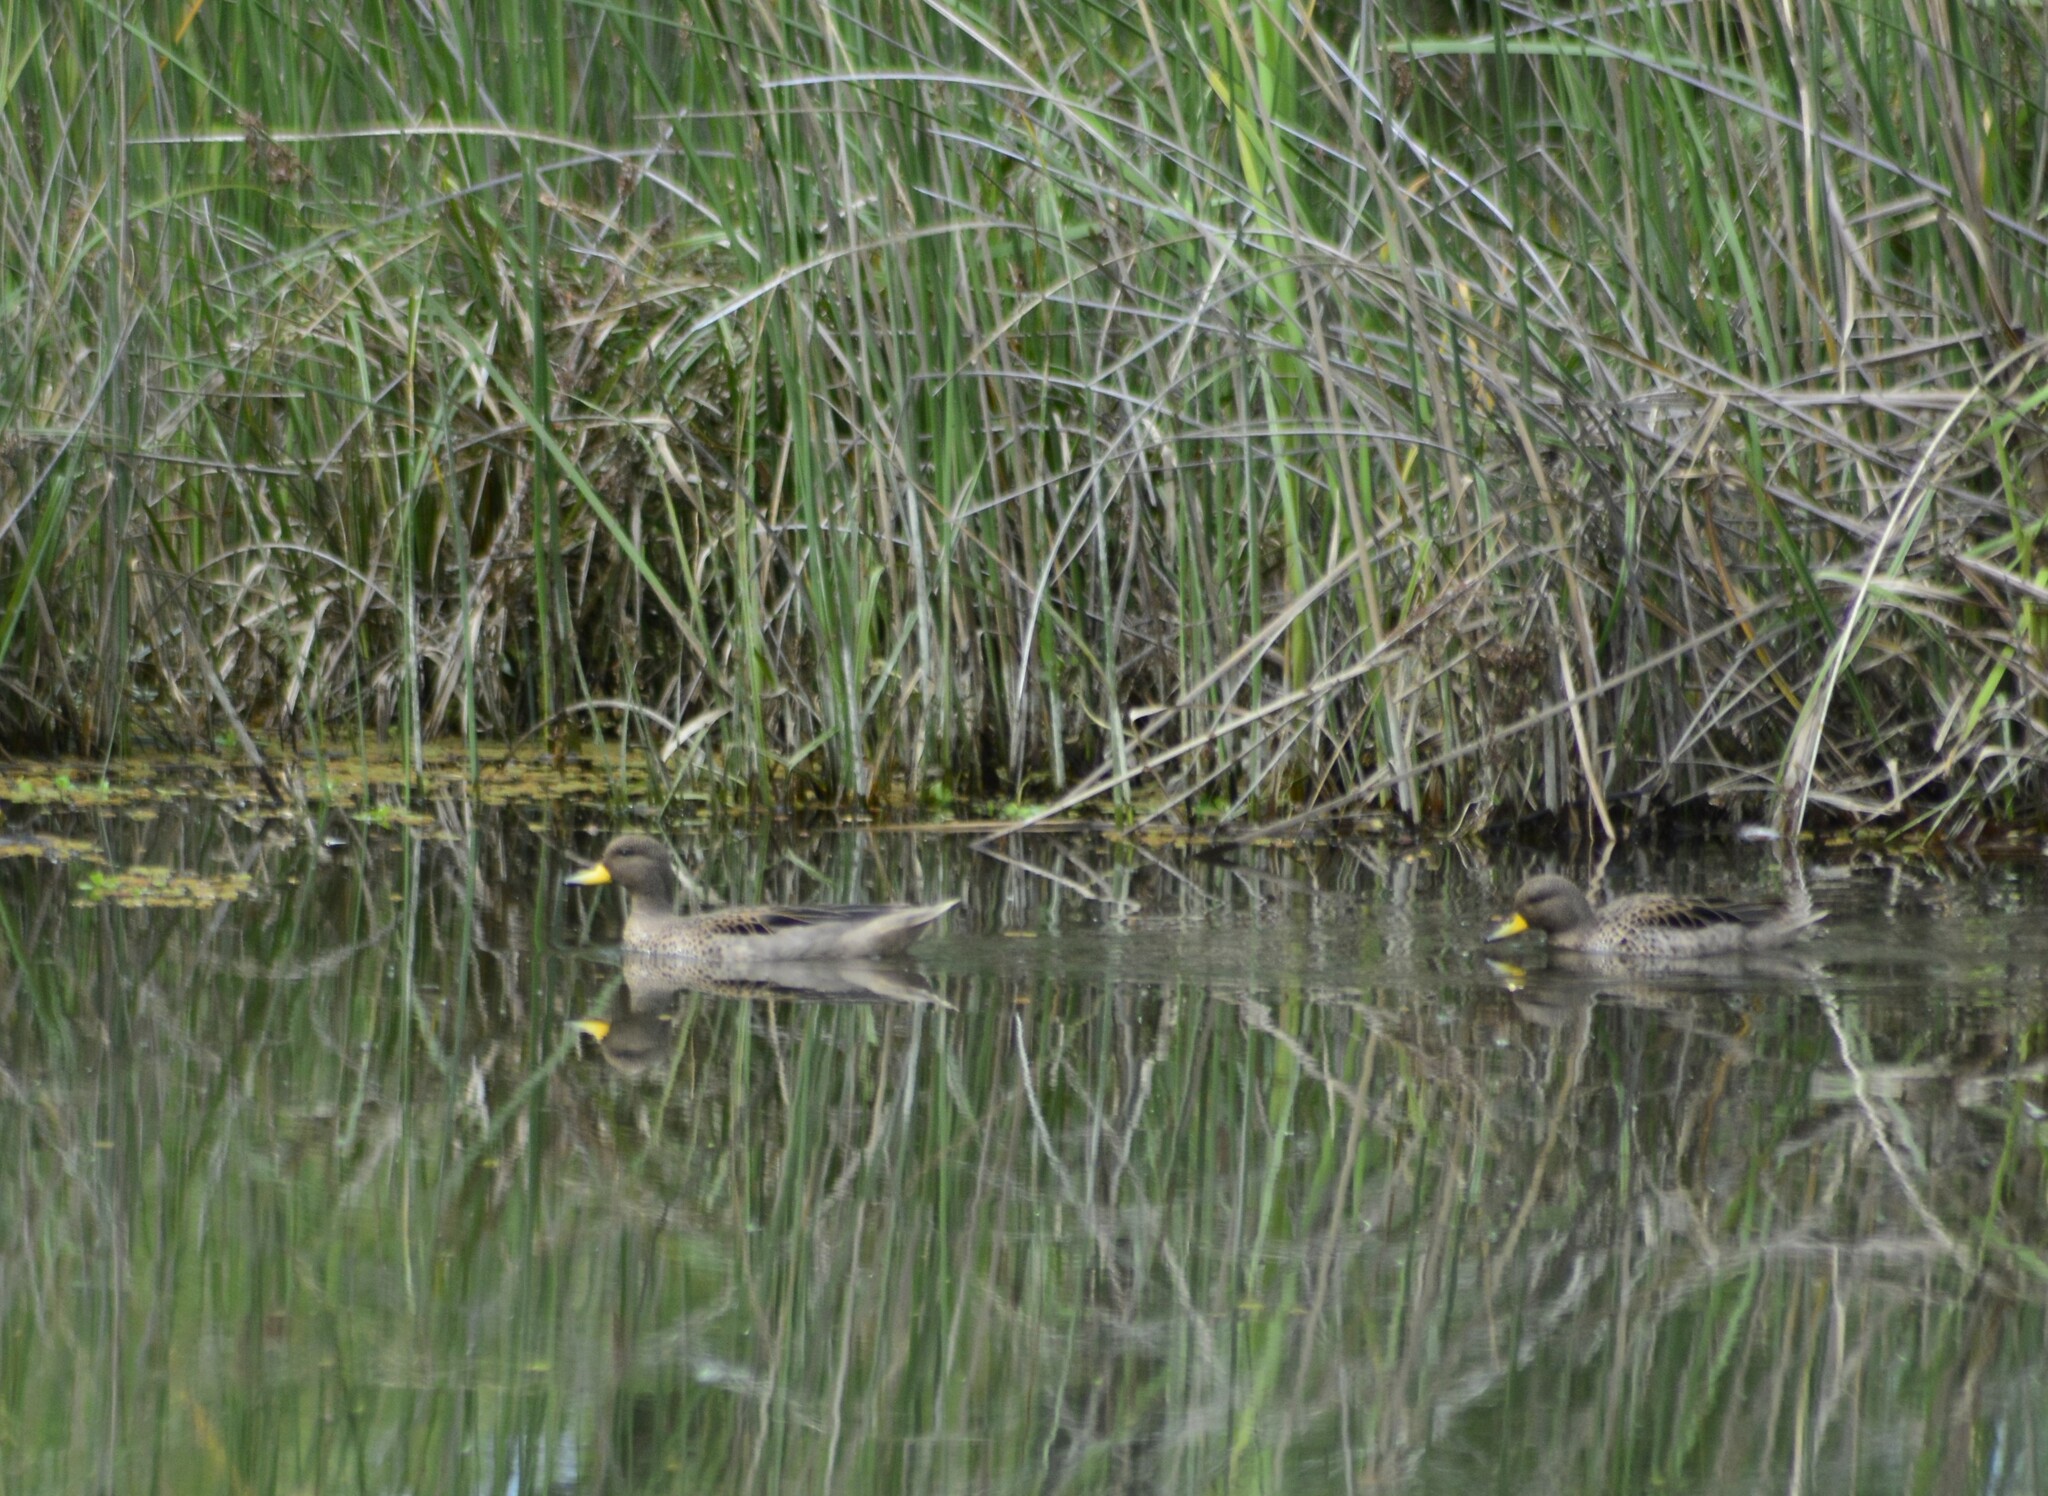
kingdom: Animalia
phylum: Chordata
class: Aves
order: Anseriformes
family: Anatidae
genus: Anas
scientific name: Anas flavirostris
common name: Yellow-billed teal
